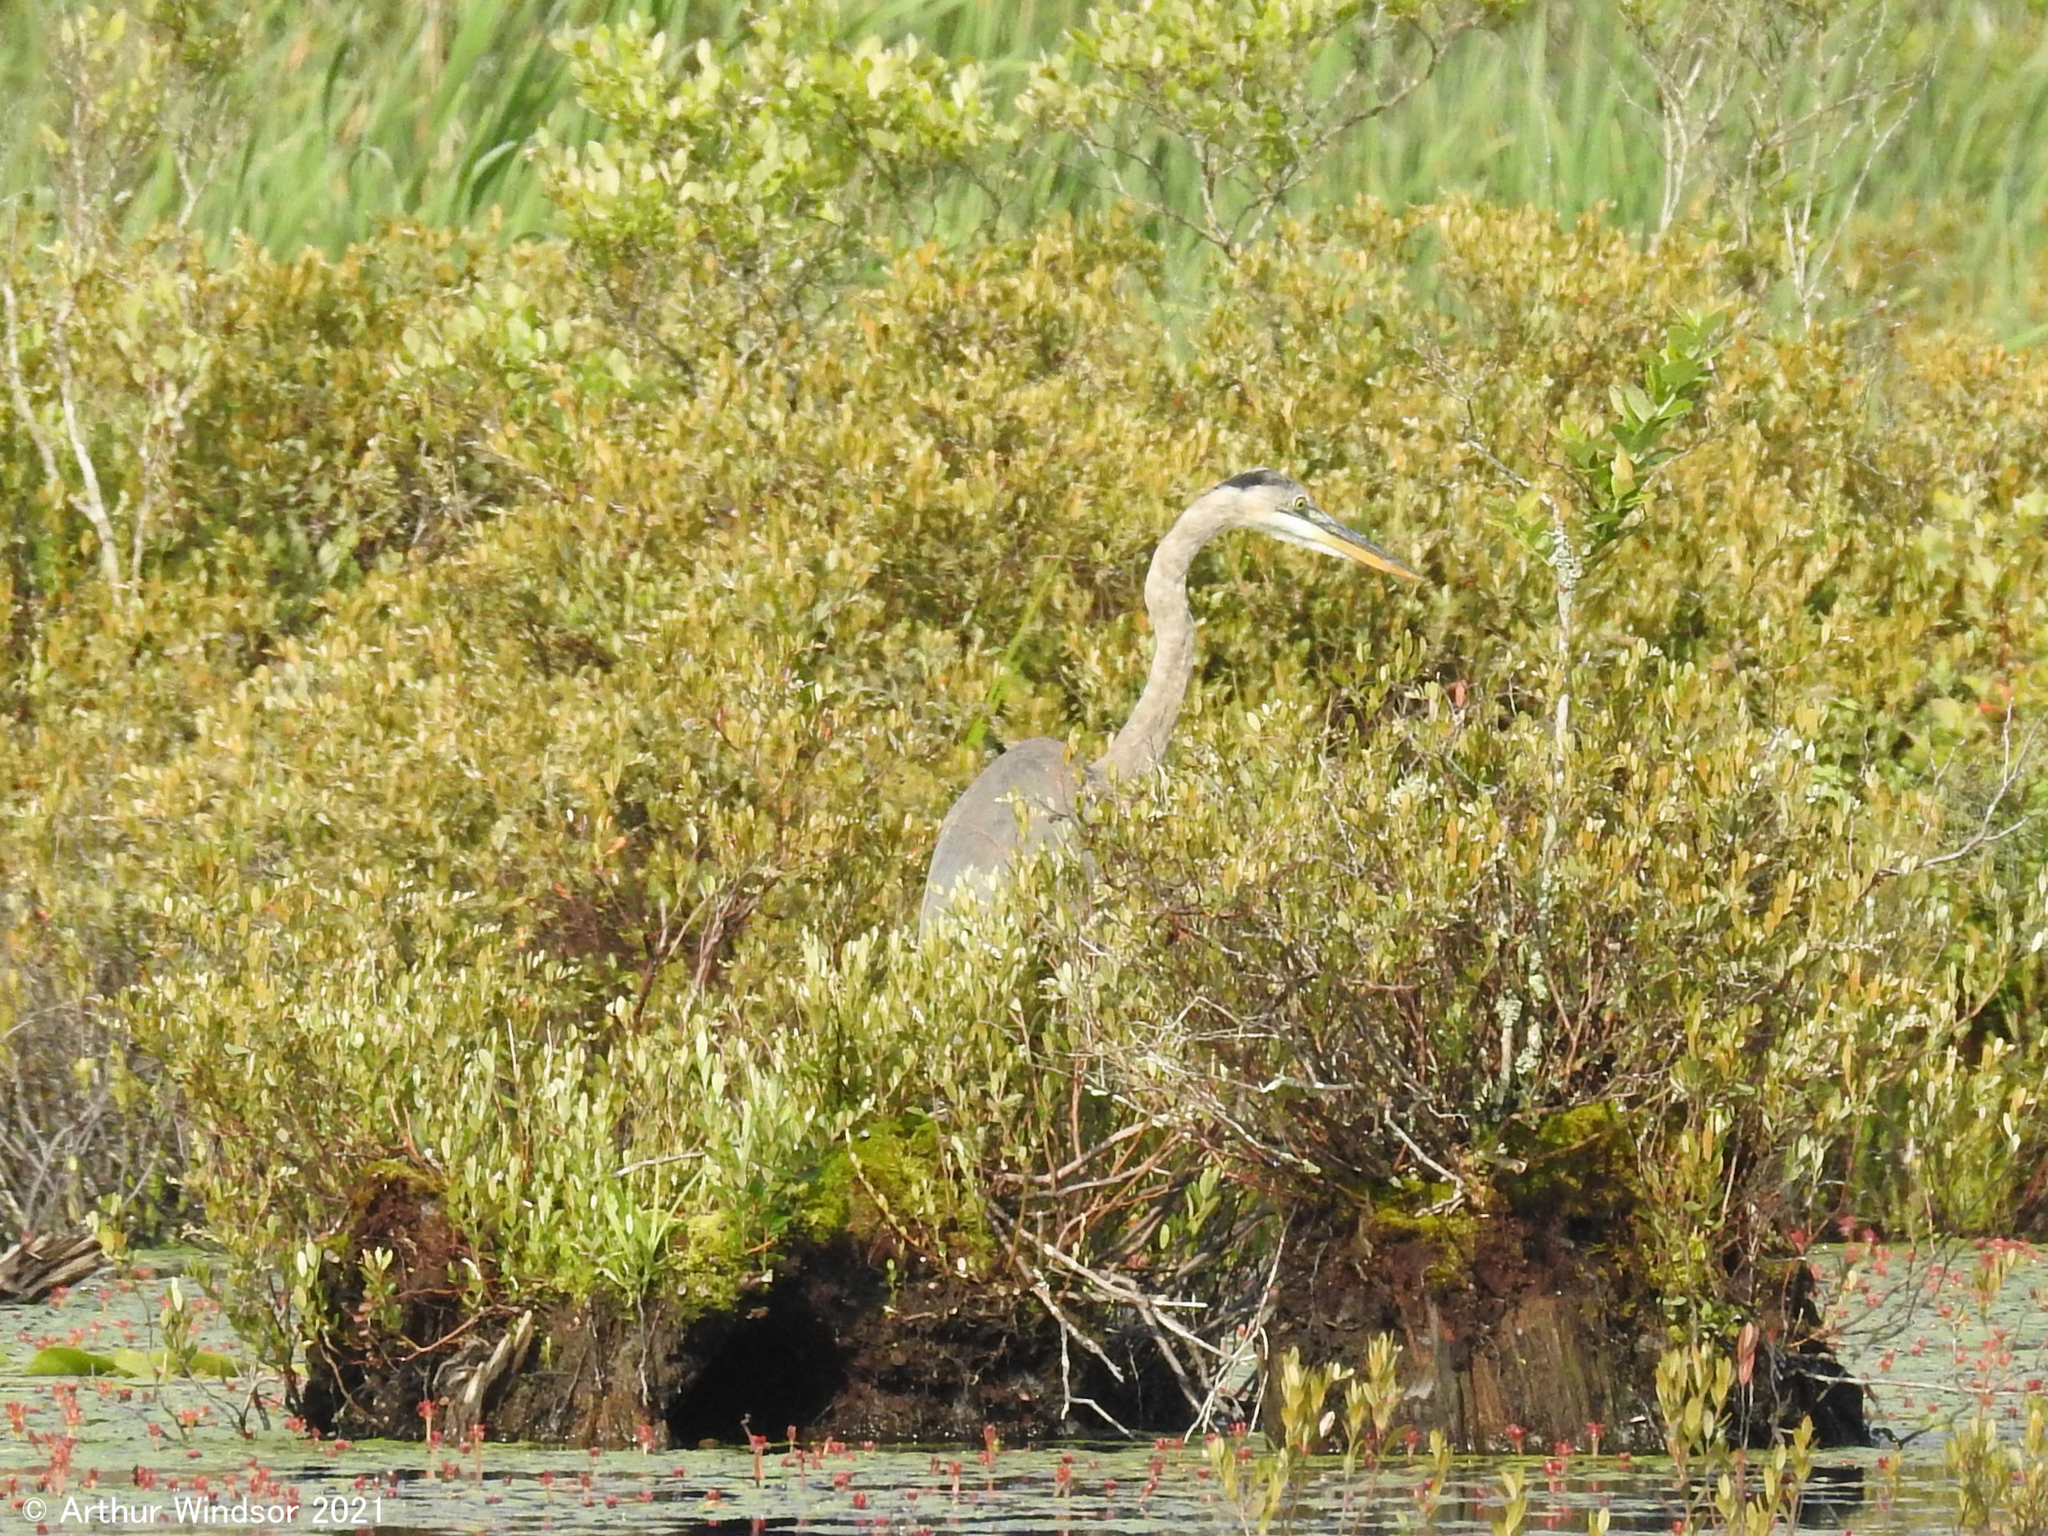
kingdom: Animalia
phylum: Chordata
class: Aves
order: Pelecaniformes
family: Ardeidae
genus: Ardea
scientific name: Ardea herodias
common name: Great blue heron
